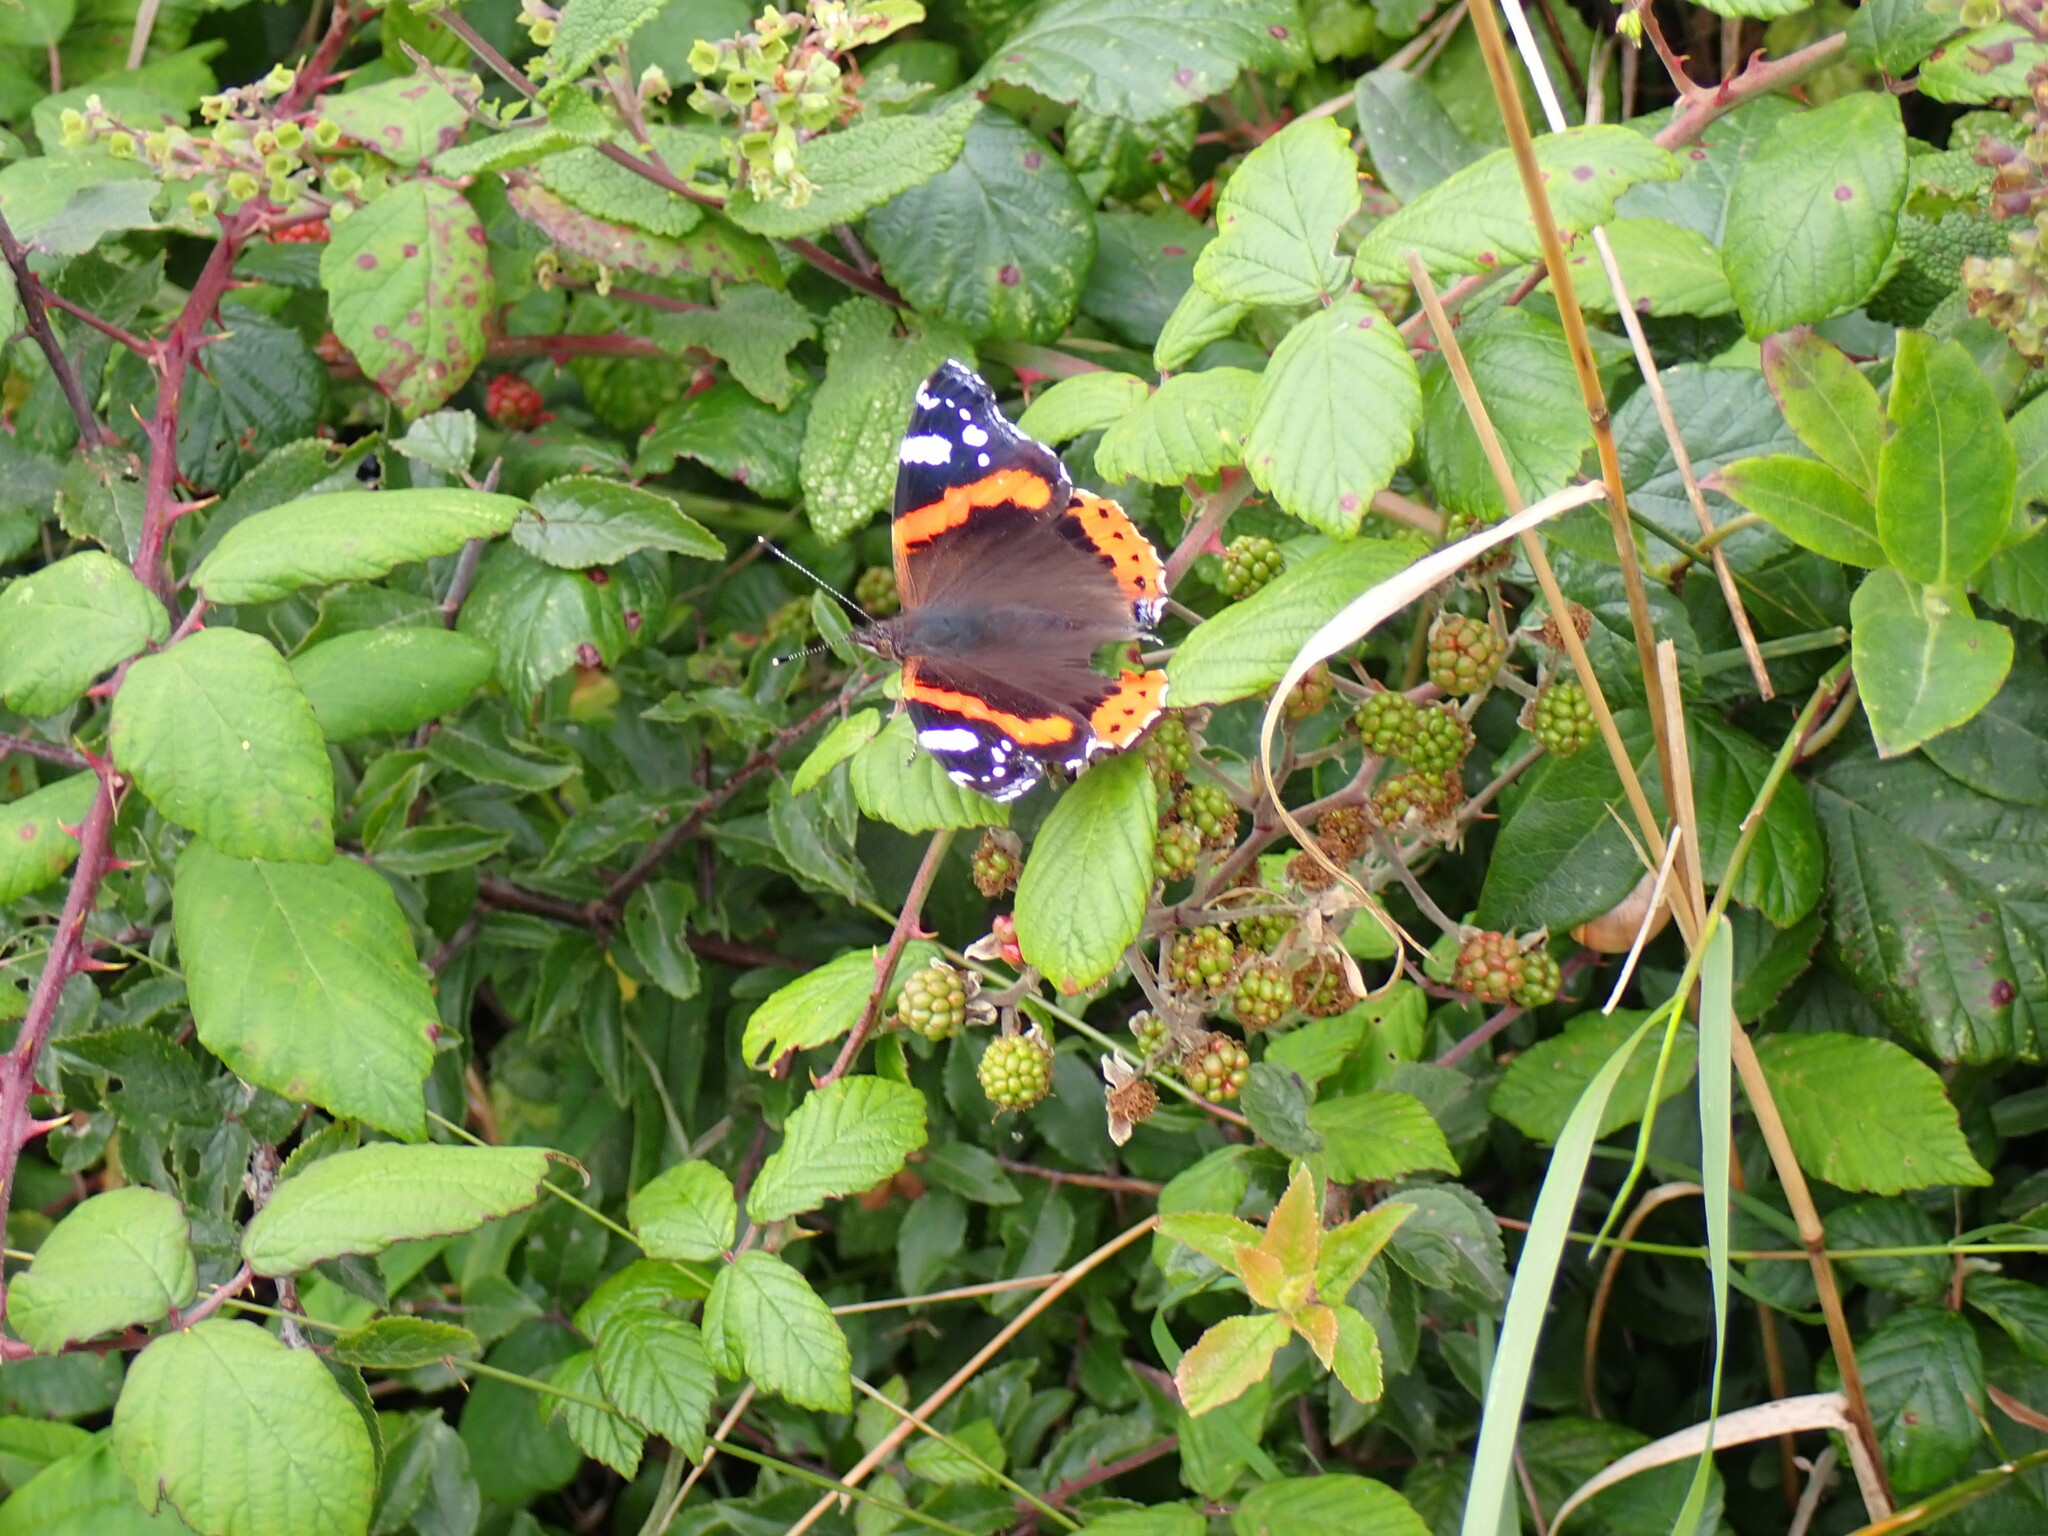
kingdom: Animalia
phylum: Arthropoda
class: Insecta
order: Lepidoptera
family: Nymphalidae
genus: Vanessa
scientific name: Vanessa atalanta
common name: Red admiral
